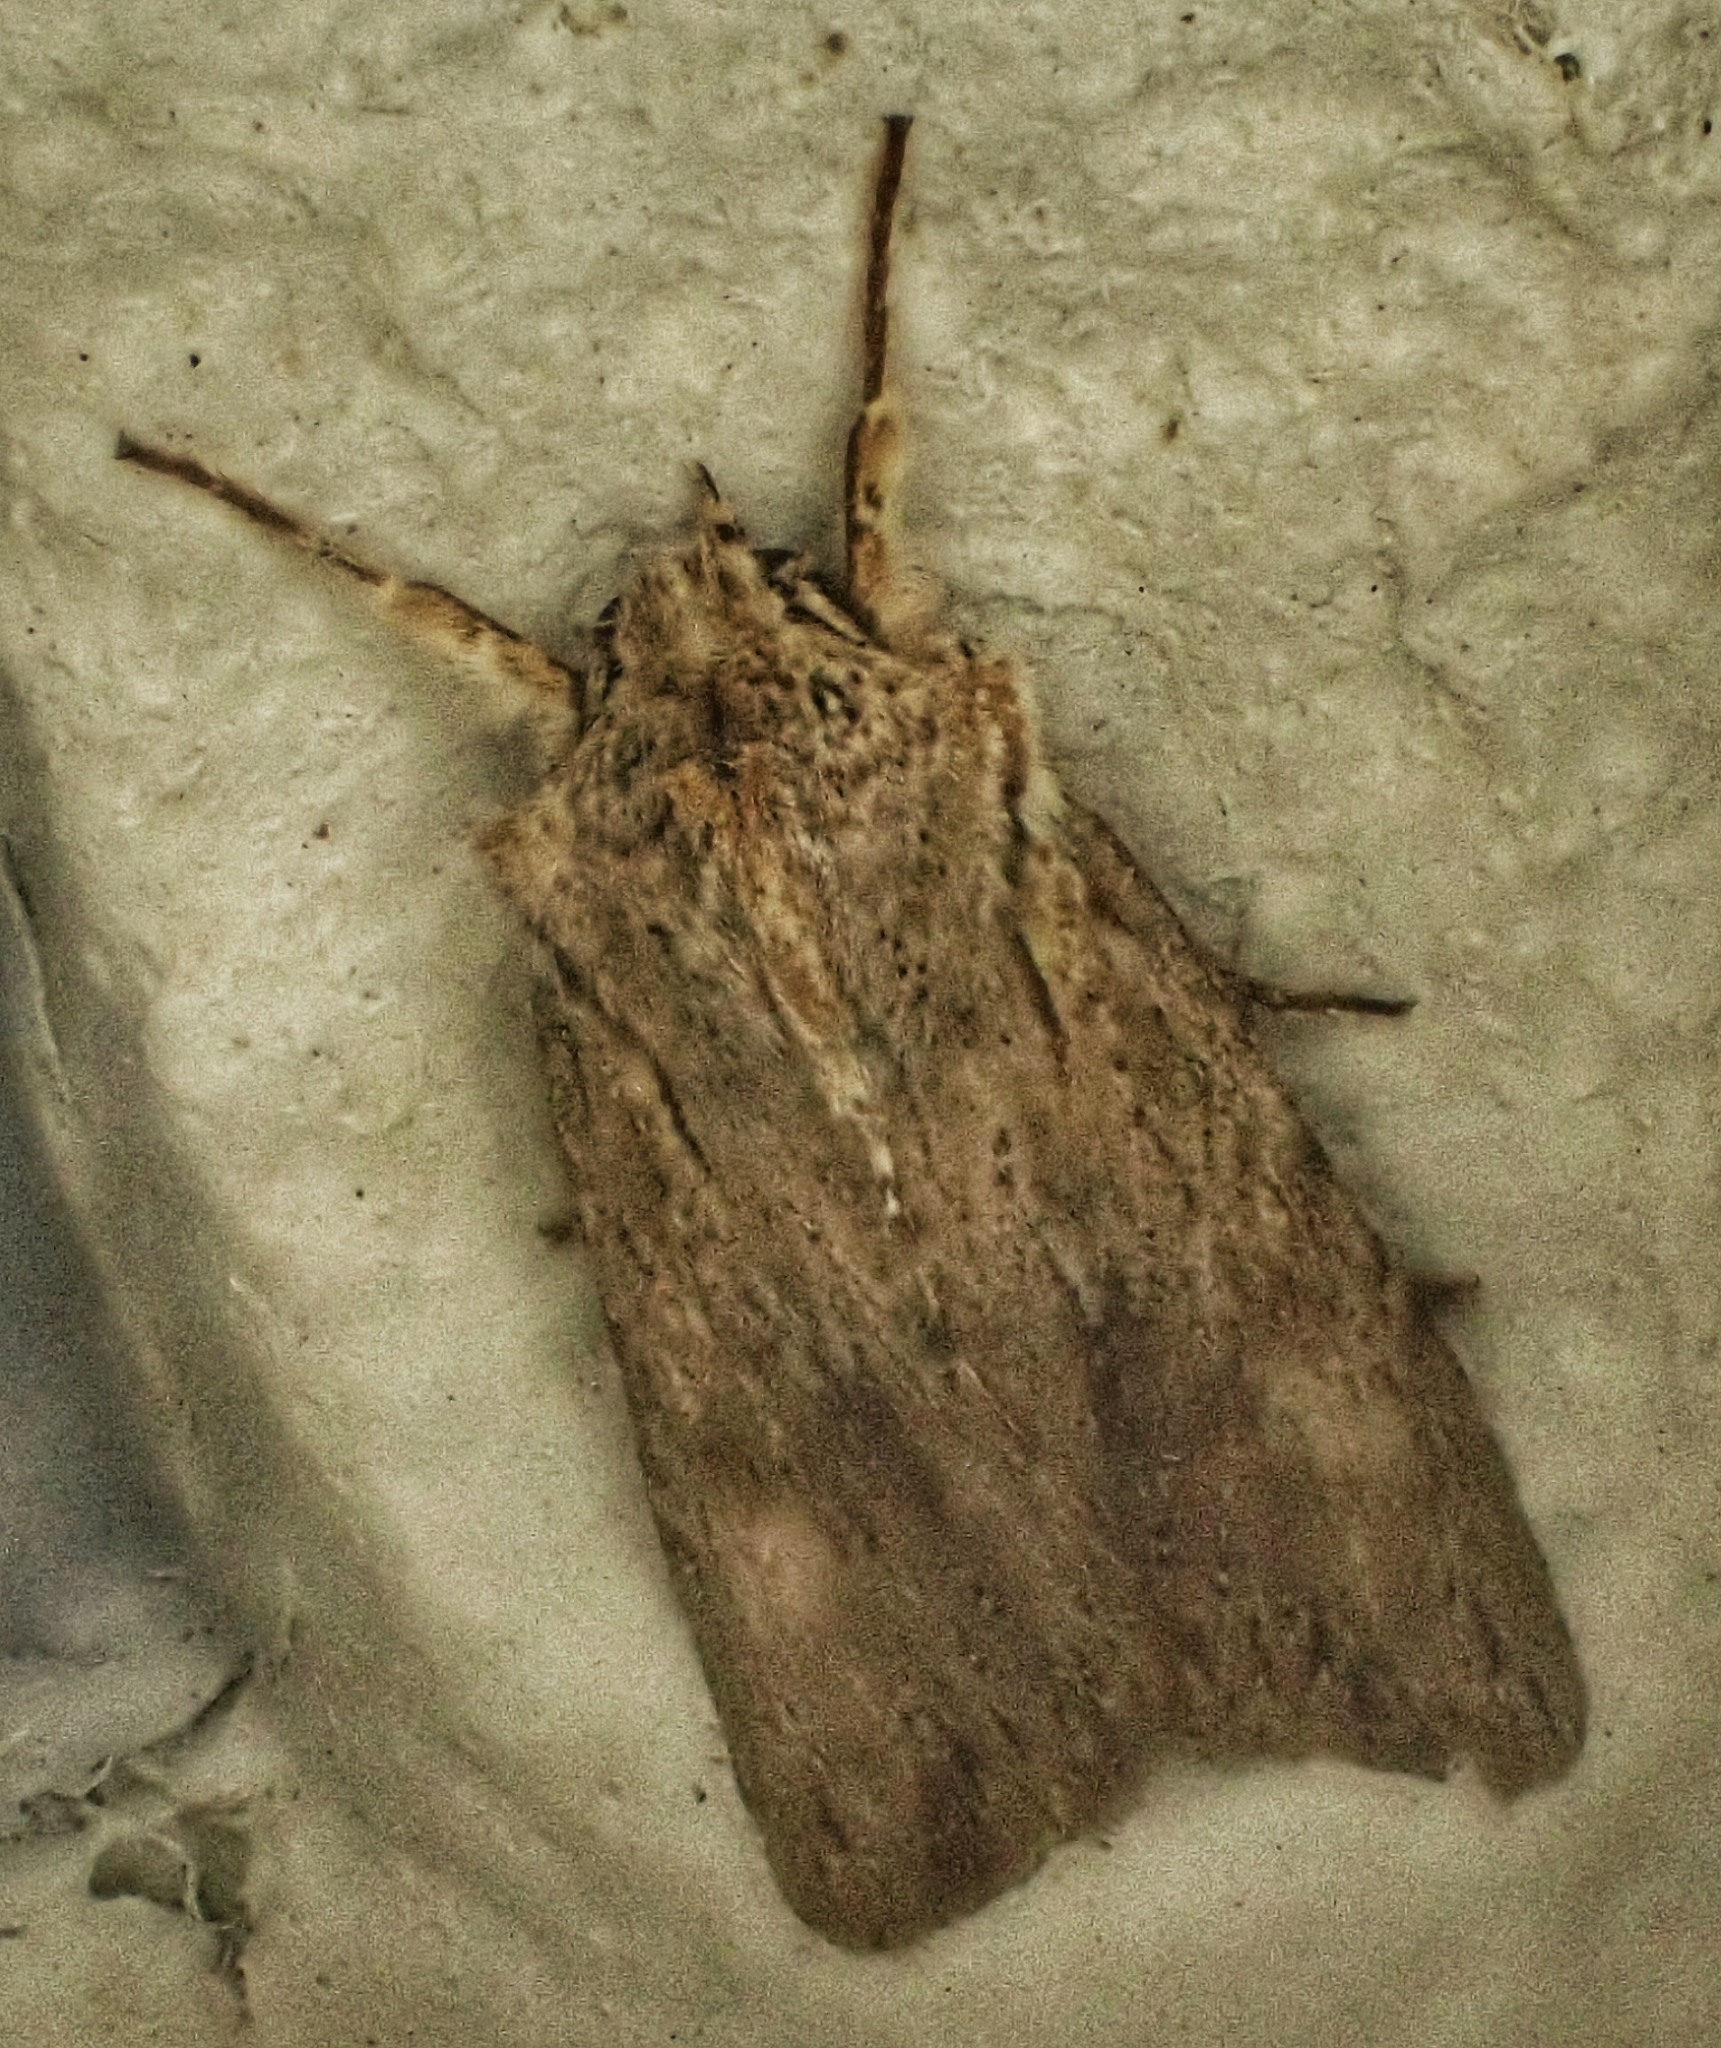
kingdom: Animalia
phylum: Arthropoda
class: Insecta
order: Lepidoptera
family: Noctuidae
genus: Lithophane
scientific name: Lithophane socia
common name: Pale pinion
